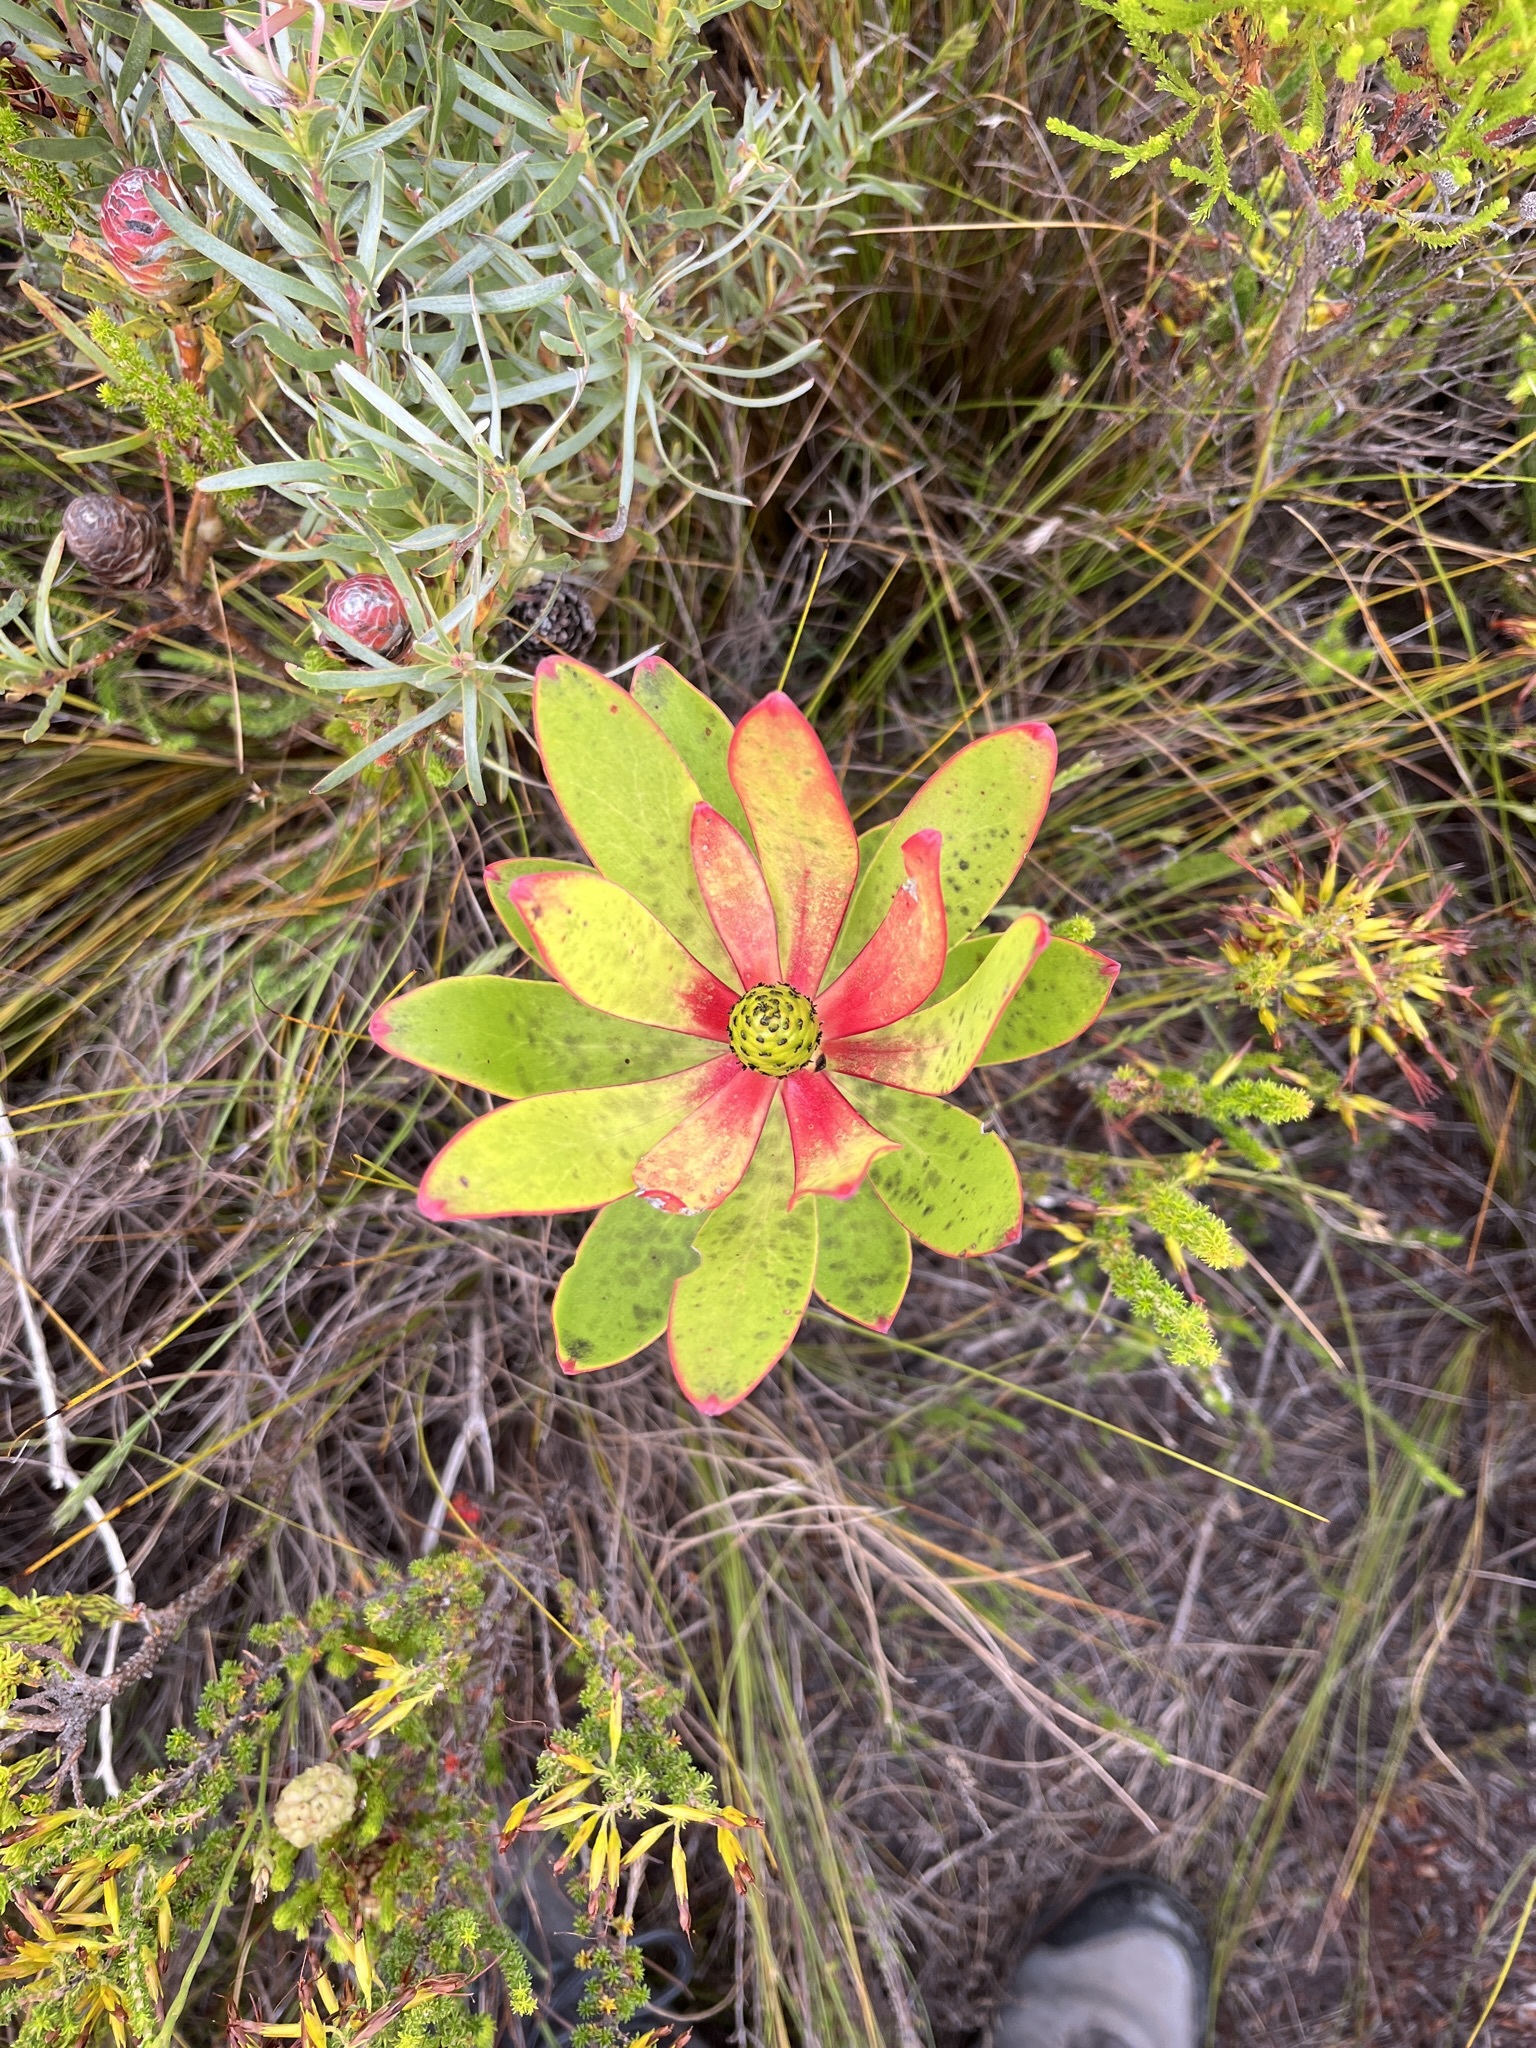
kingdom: Plantae
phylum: Tracheophyta
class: Magnoliopsida
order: Proteales
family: Proteaceae
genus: Leucadendron
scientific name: Leucadendron gandogeri
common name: Broad-leaf conebush
